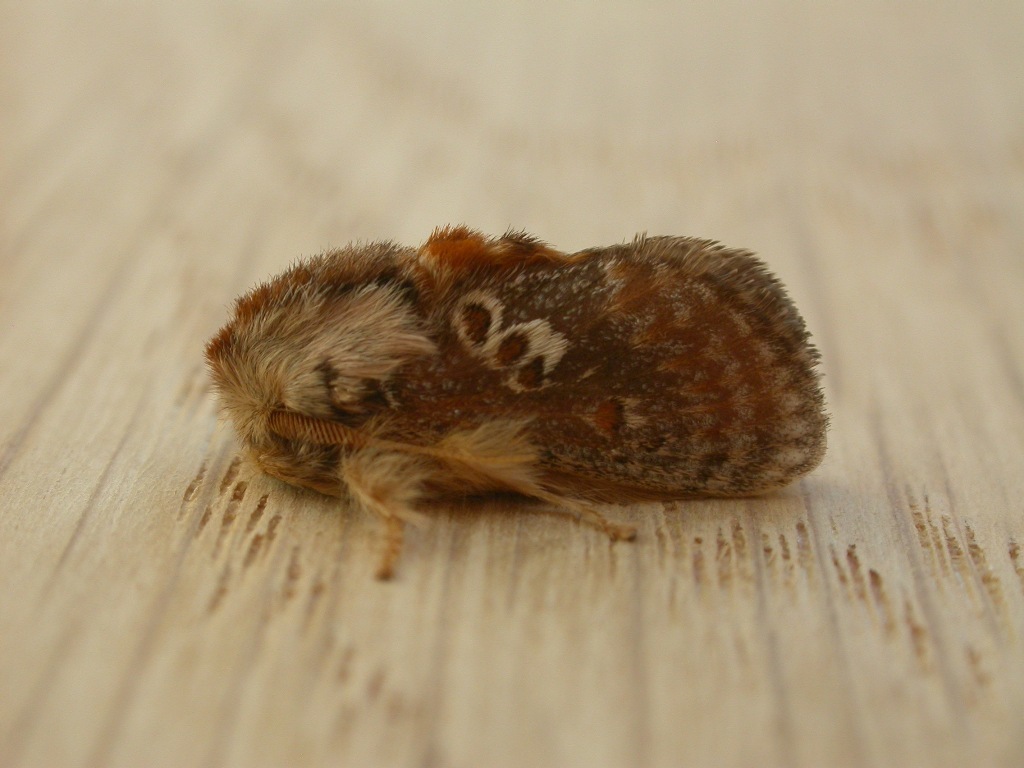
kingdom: Animalia
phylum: Arthropoda
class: Insecta
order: Lepidoptera
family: Limacodidae
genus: Pseudanapaea
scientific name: Pseudanapaea transvestita
